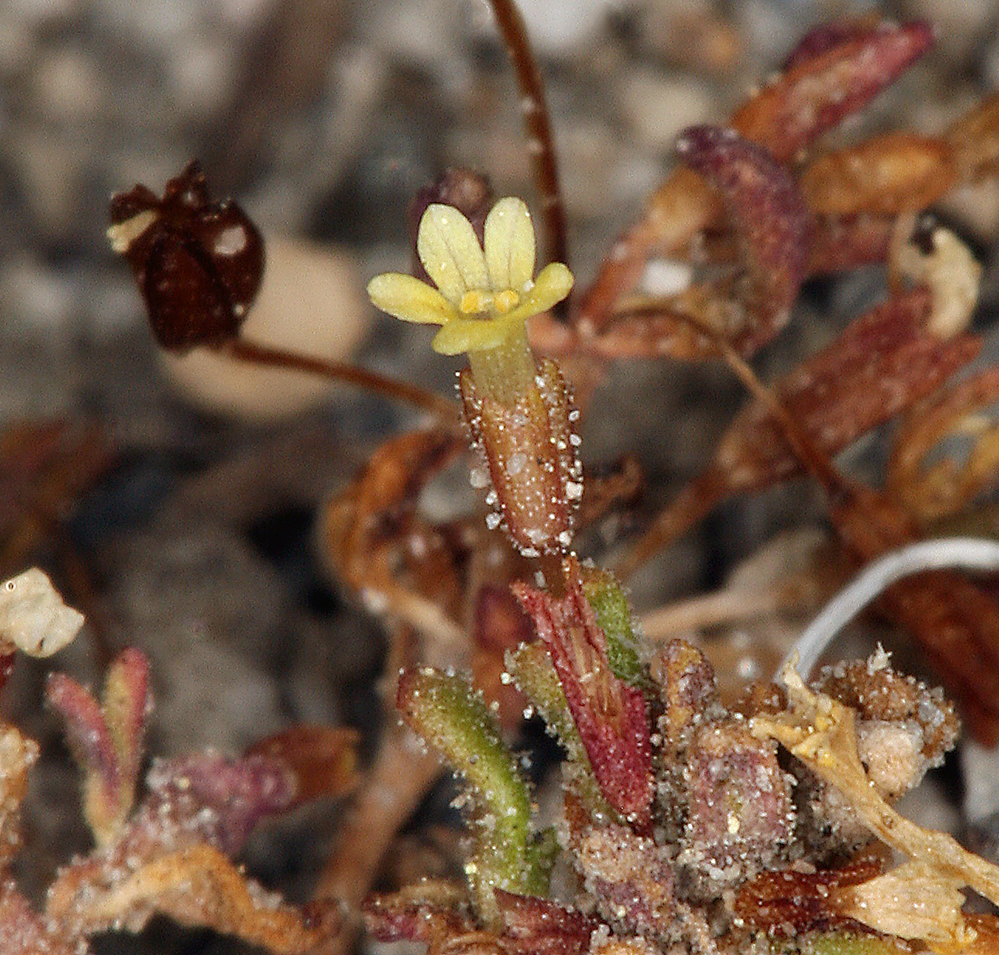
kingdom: Plantae
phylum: Tracheophyta
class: Magnoliopsida
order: Lamiales
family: Phrymaceae
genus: Erythranthe
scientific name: Erythranthe suksdorfii
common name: Suksdorf's monkeyflower
